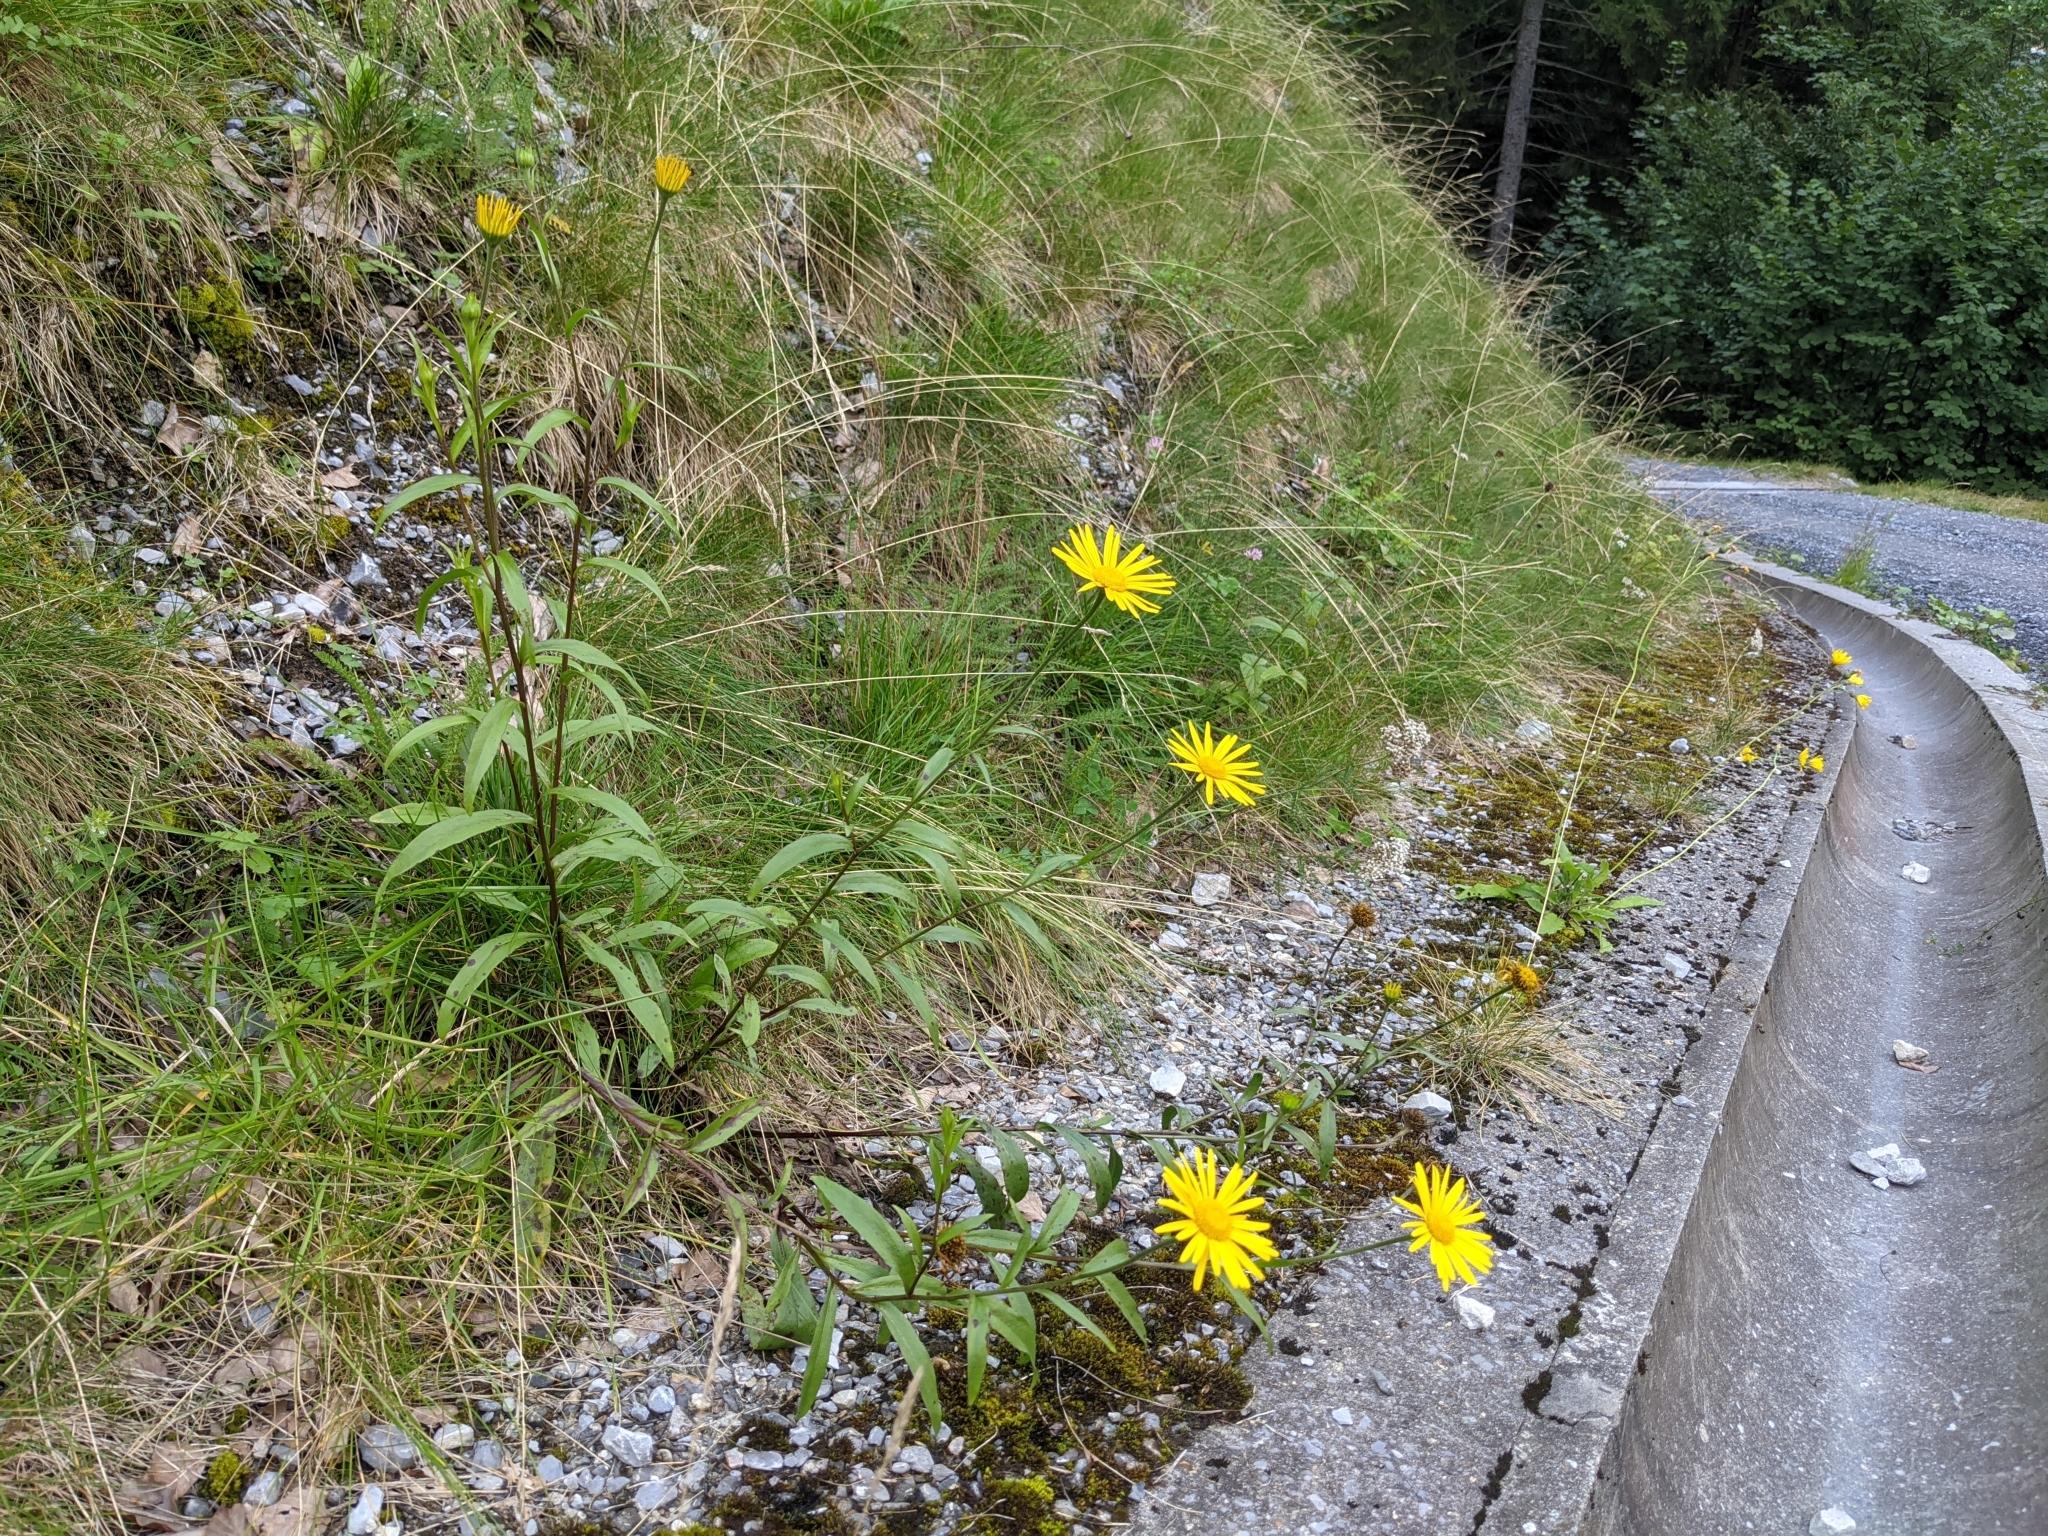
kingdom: Plantae
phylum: Tracheophyta
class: Magnoliopsida
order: Asterales
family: Asteraceae
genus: Buphthalmum
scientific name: Buphthalmum salicifolium
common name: Willow-leaved yellow-oxeye
